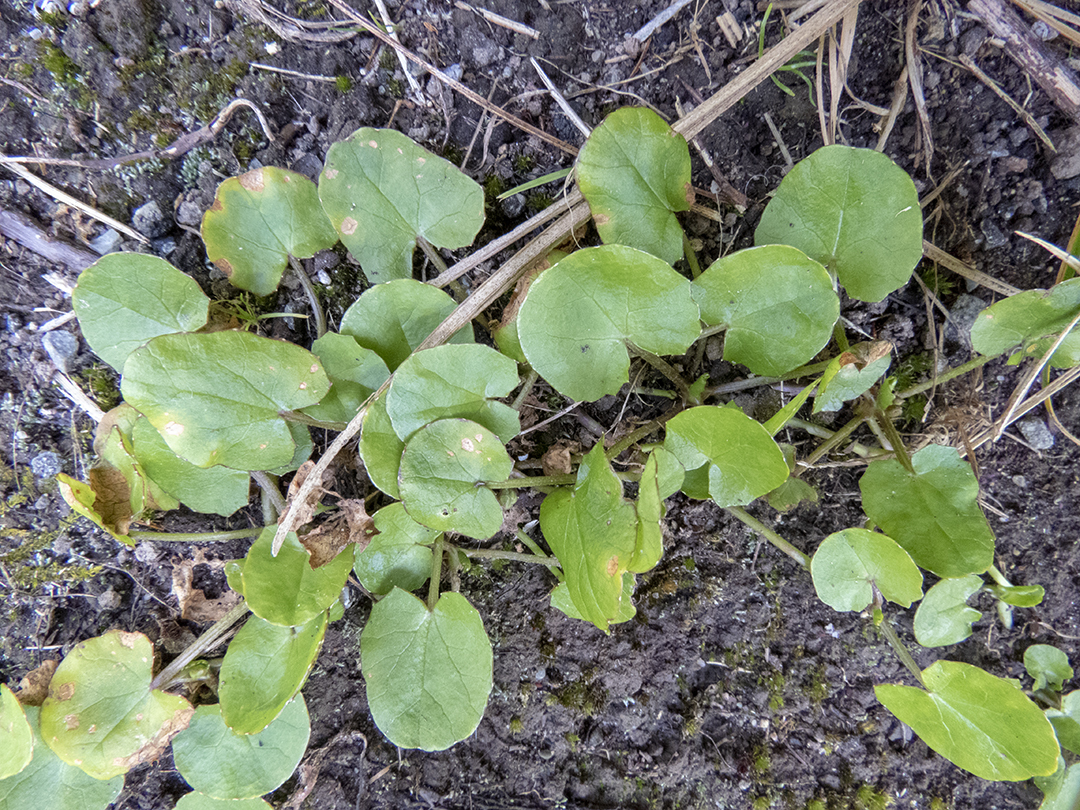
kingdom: Plantae
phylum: Tracheophyta
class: Magnoliopsida
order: Apiales
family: Apiaceae
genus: Centella
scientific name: Centella uniflora
